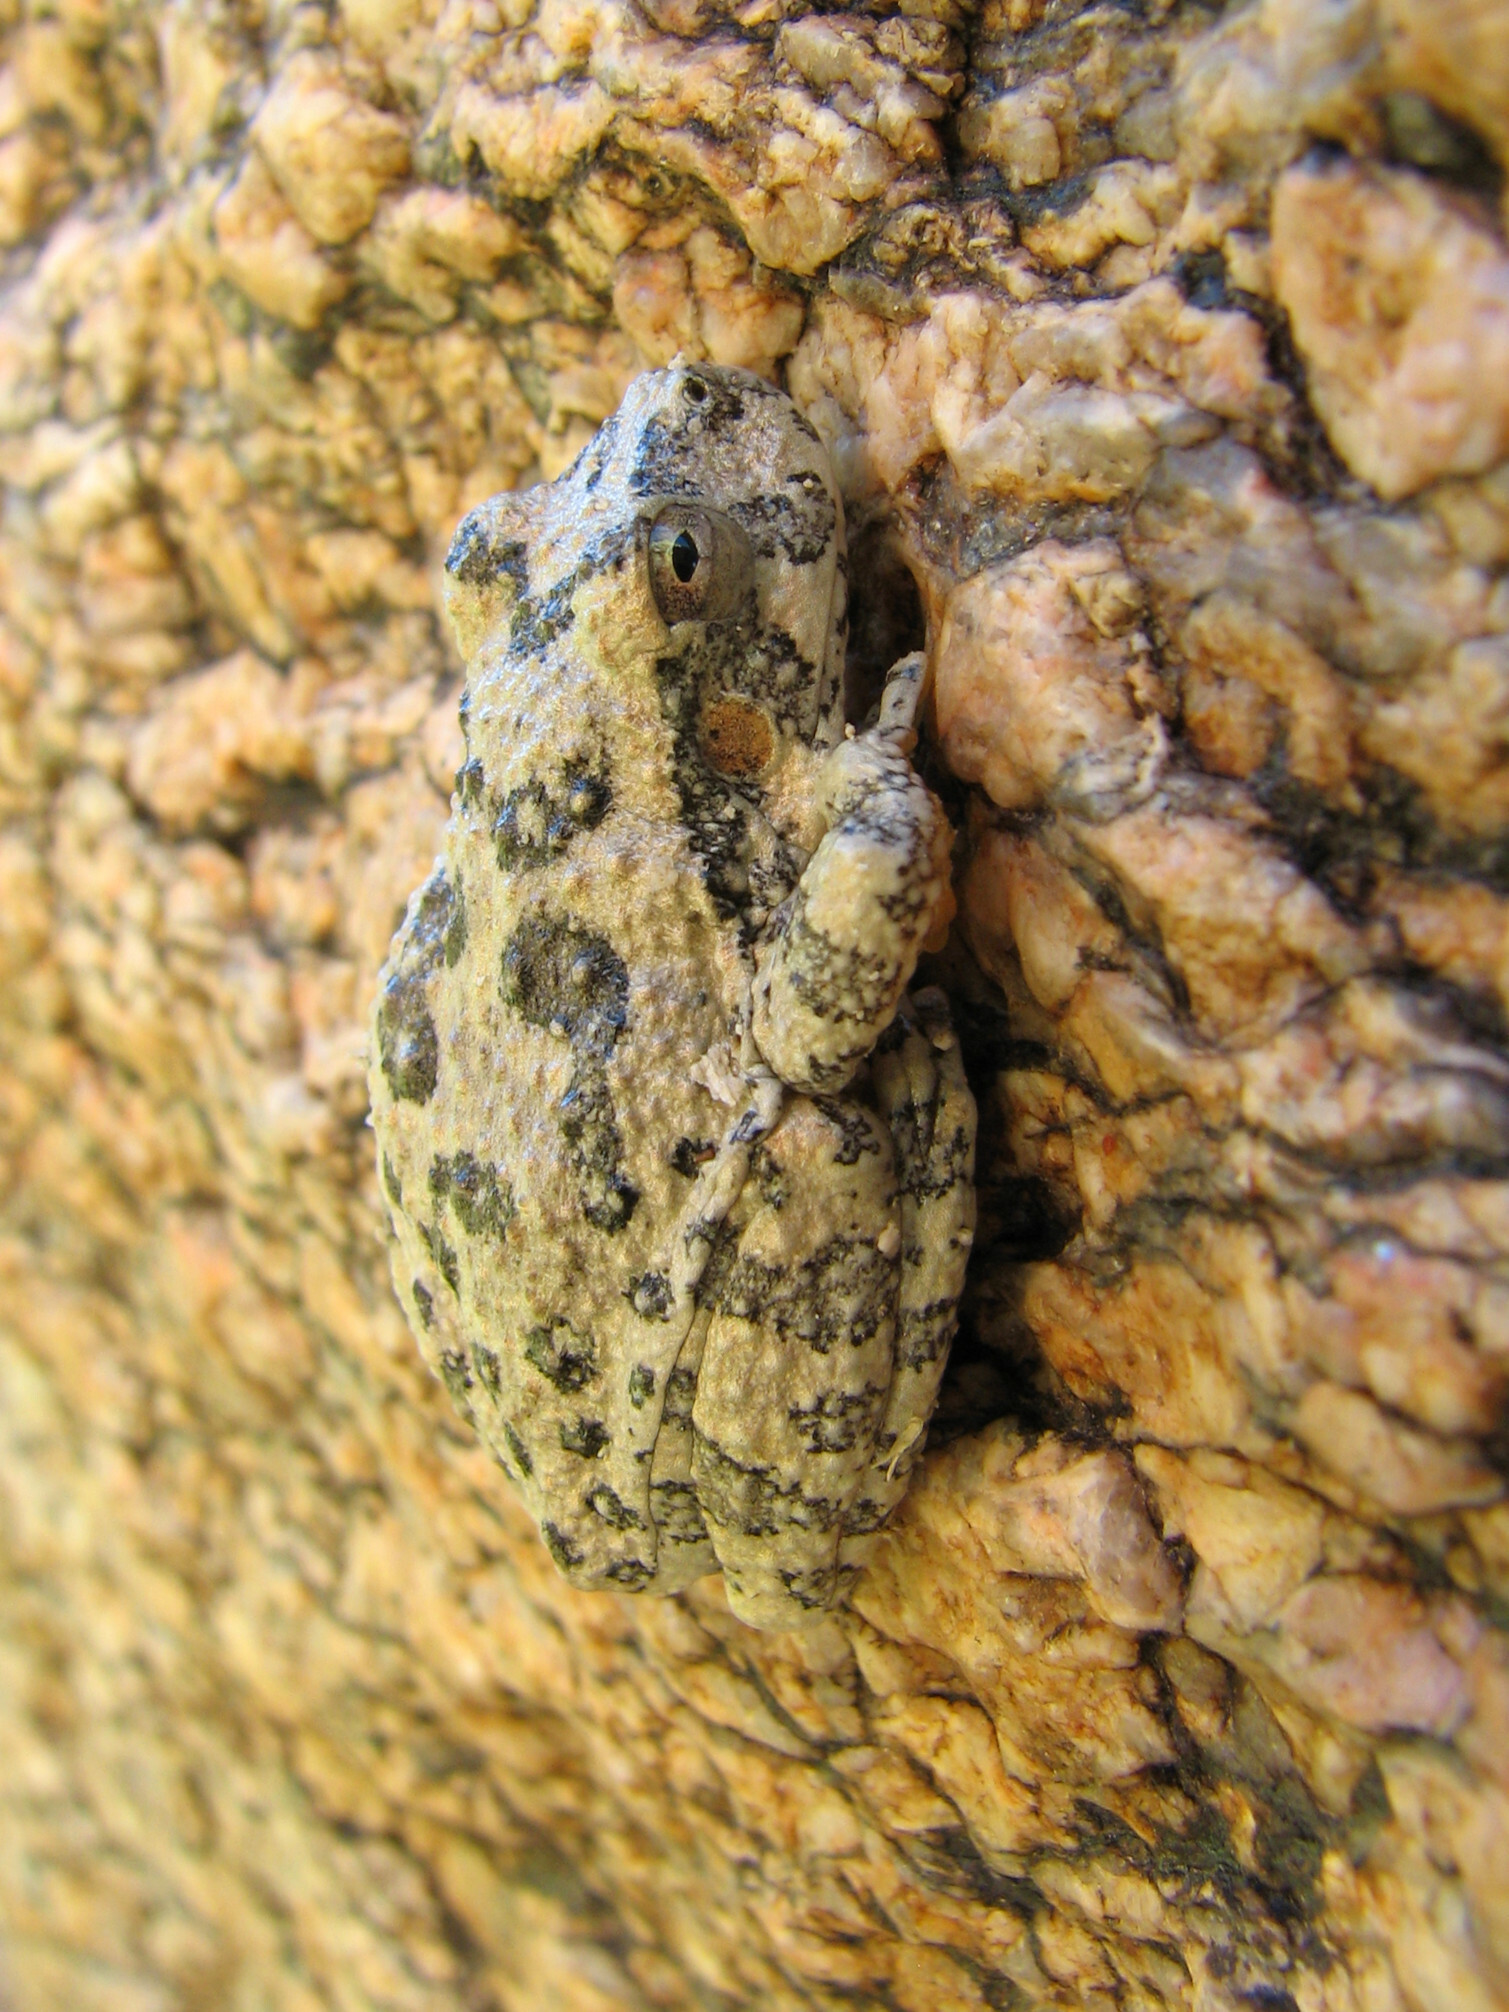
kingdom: Animalia
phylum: Chordata
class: Amphibia
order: Anura
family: Hylidae
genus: Dryophytes
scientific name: Dryophytes arenicolor
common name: Canyon treefrog
